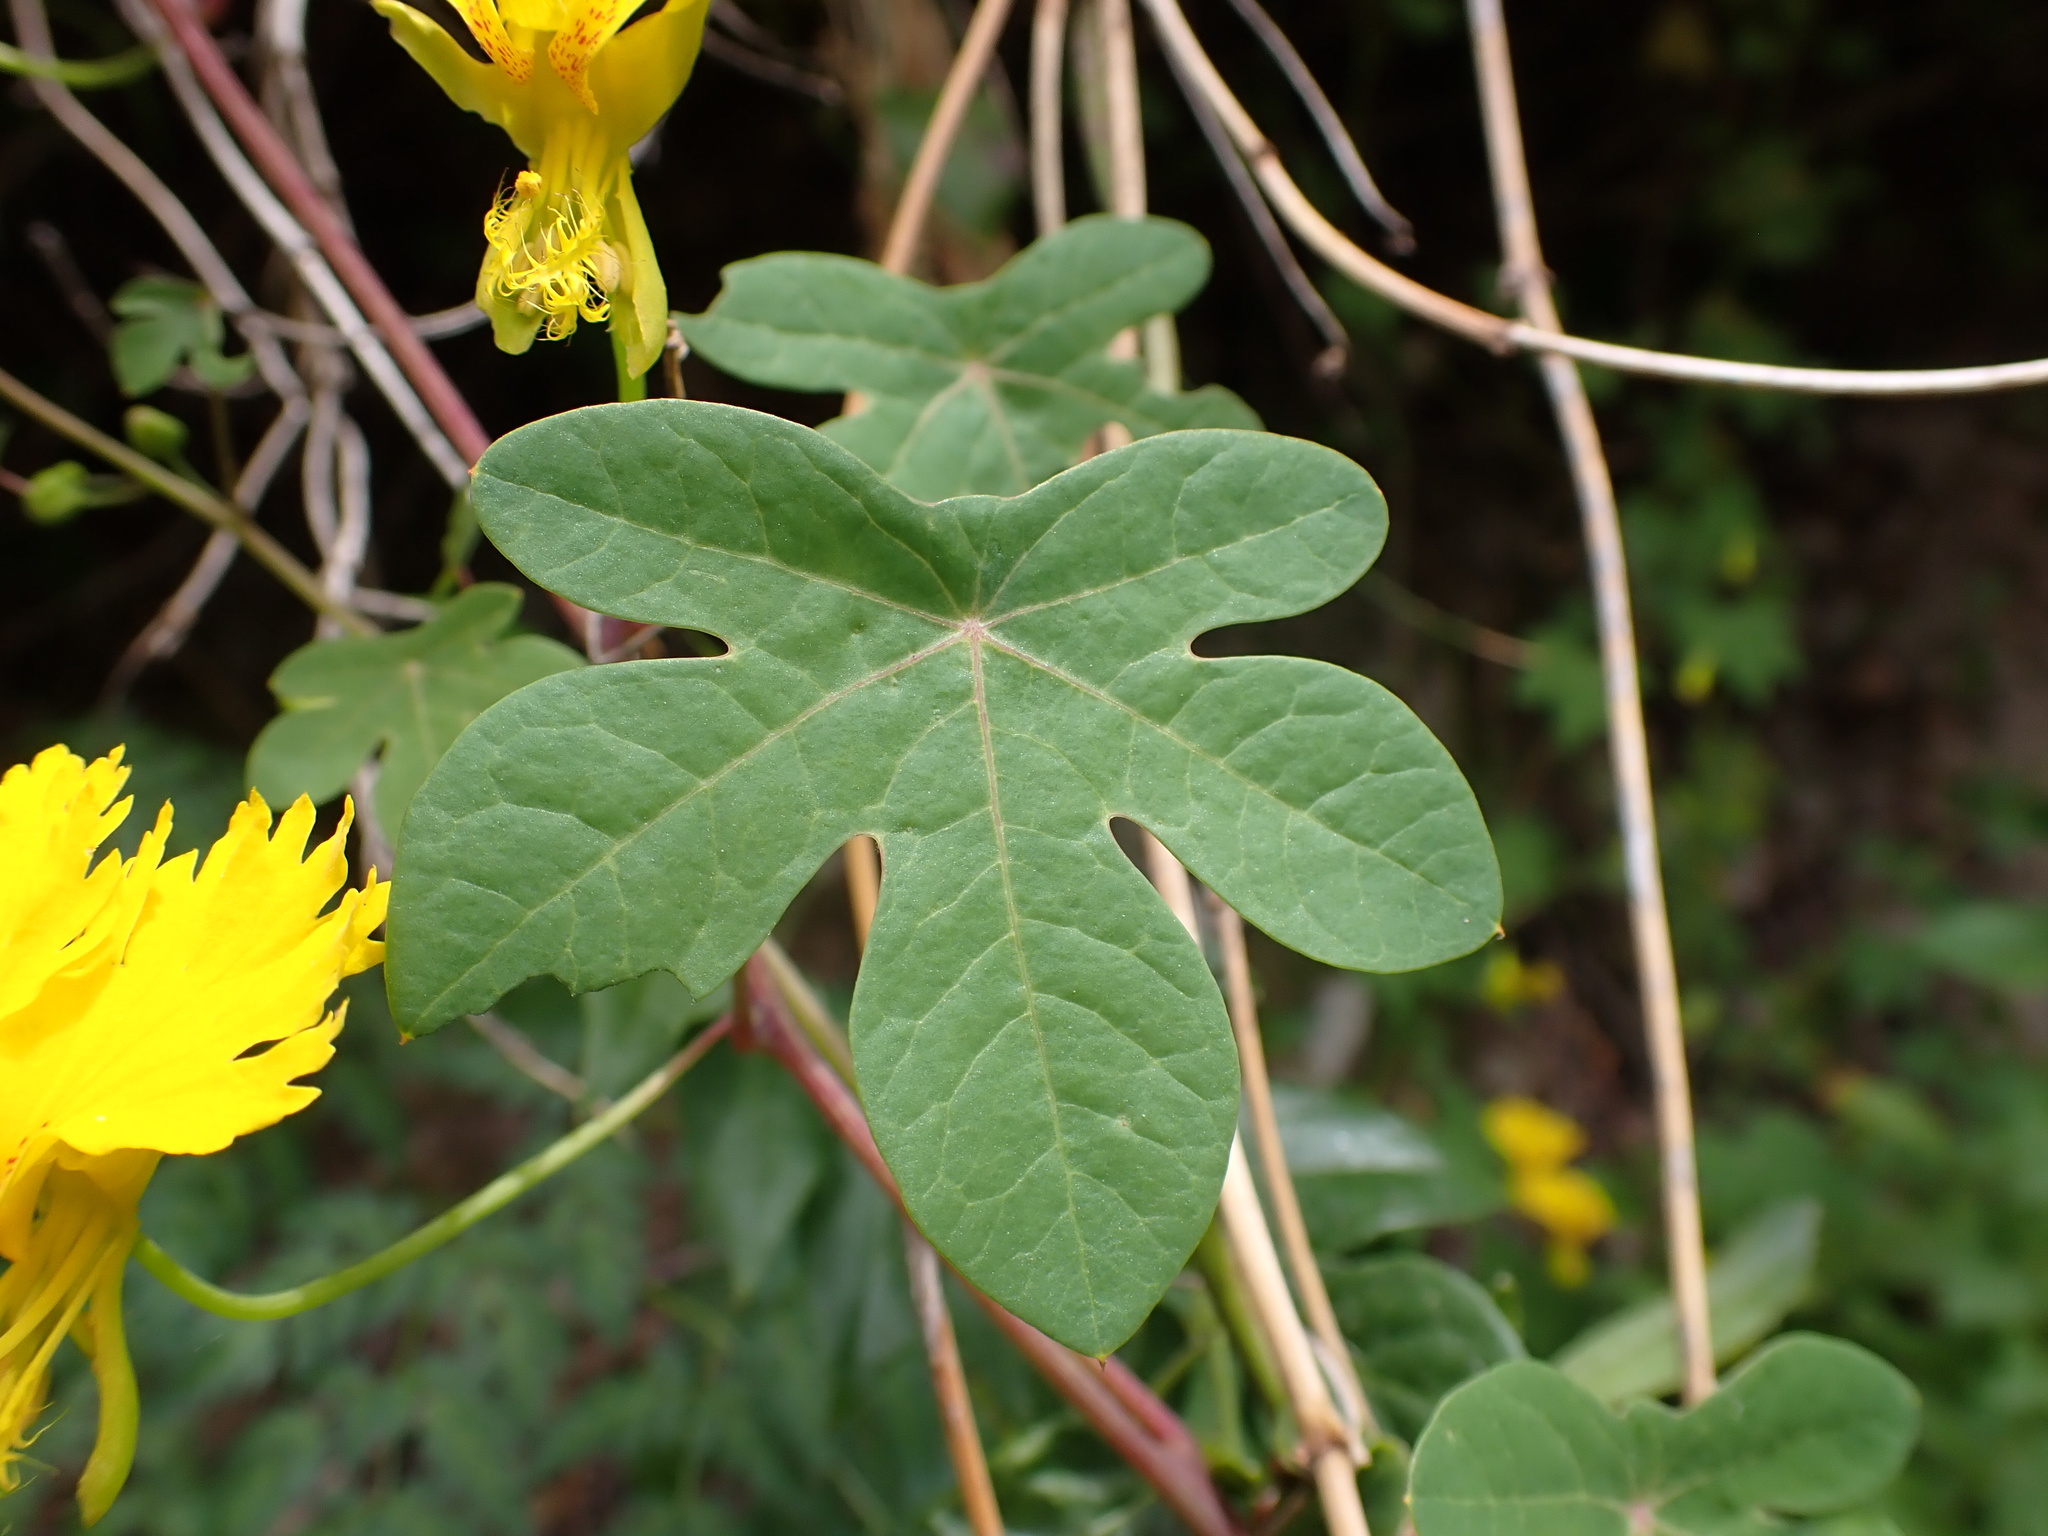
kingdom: Plantae
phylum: Tracheophyta
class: Magnoliopsida
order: Brassicales
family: Tropaeolaceae
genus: Tropaeolum
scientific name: Tropaeolum peregrinum
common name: Canary-creeper
